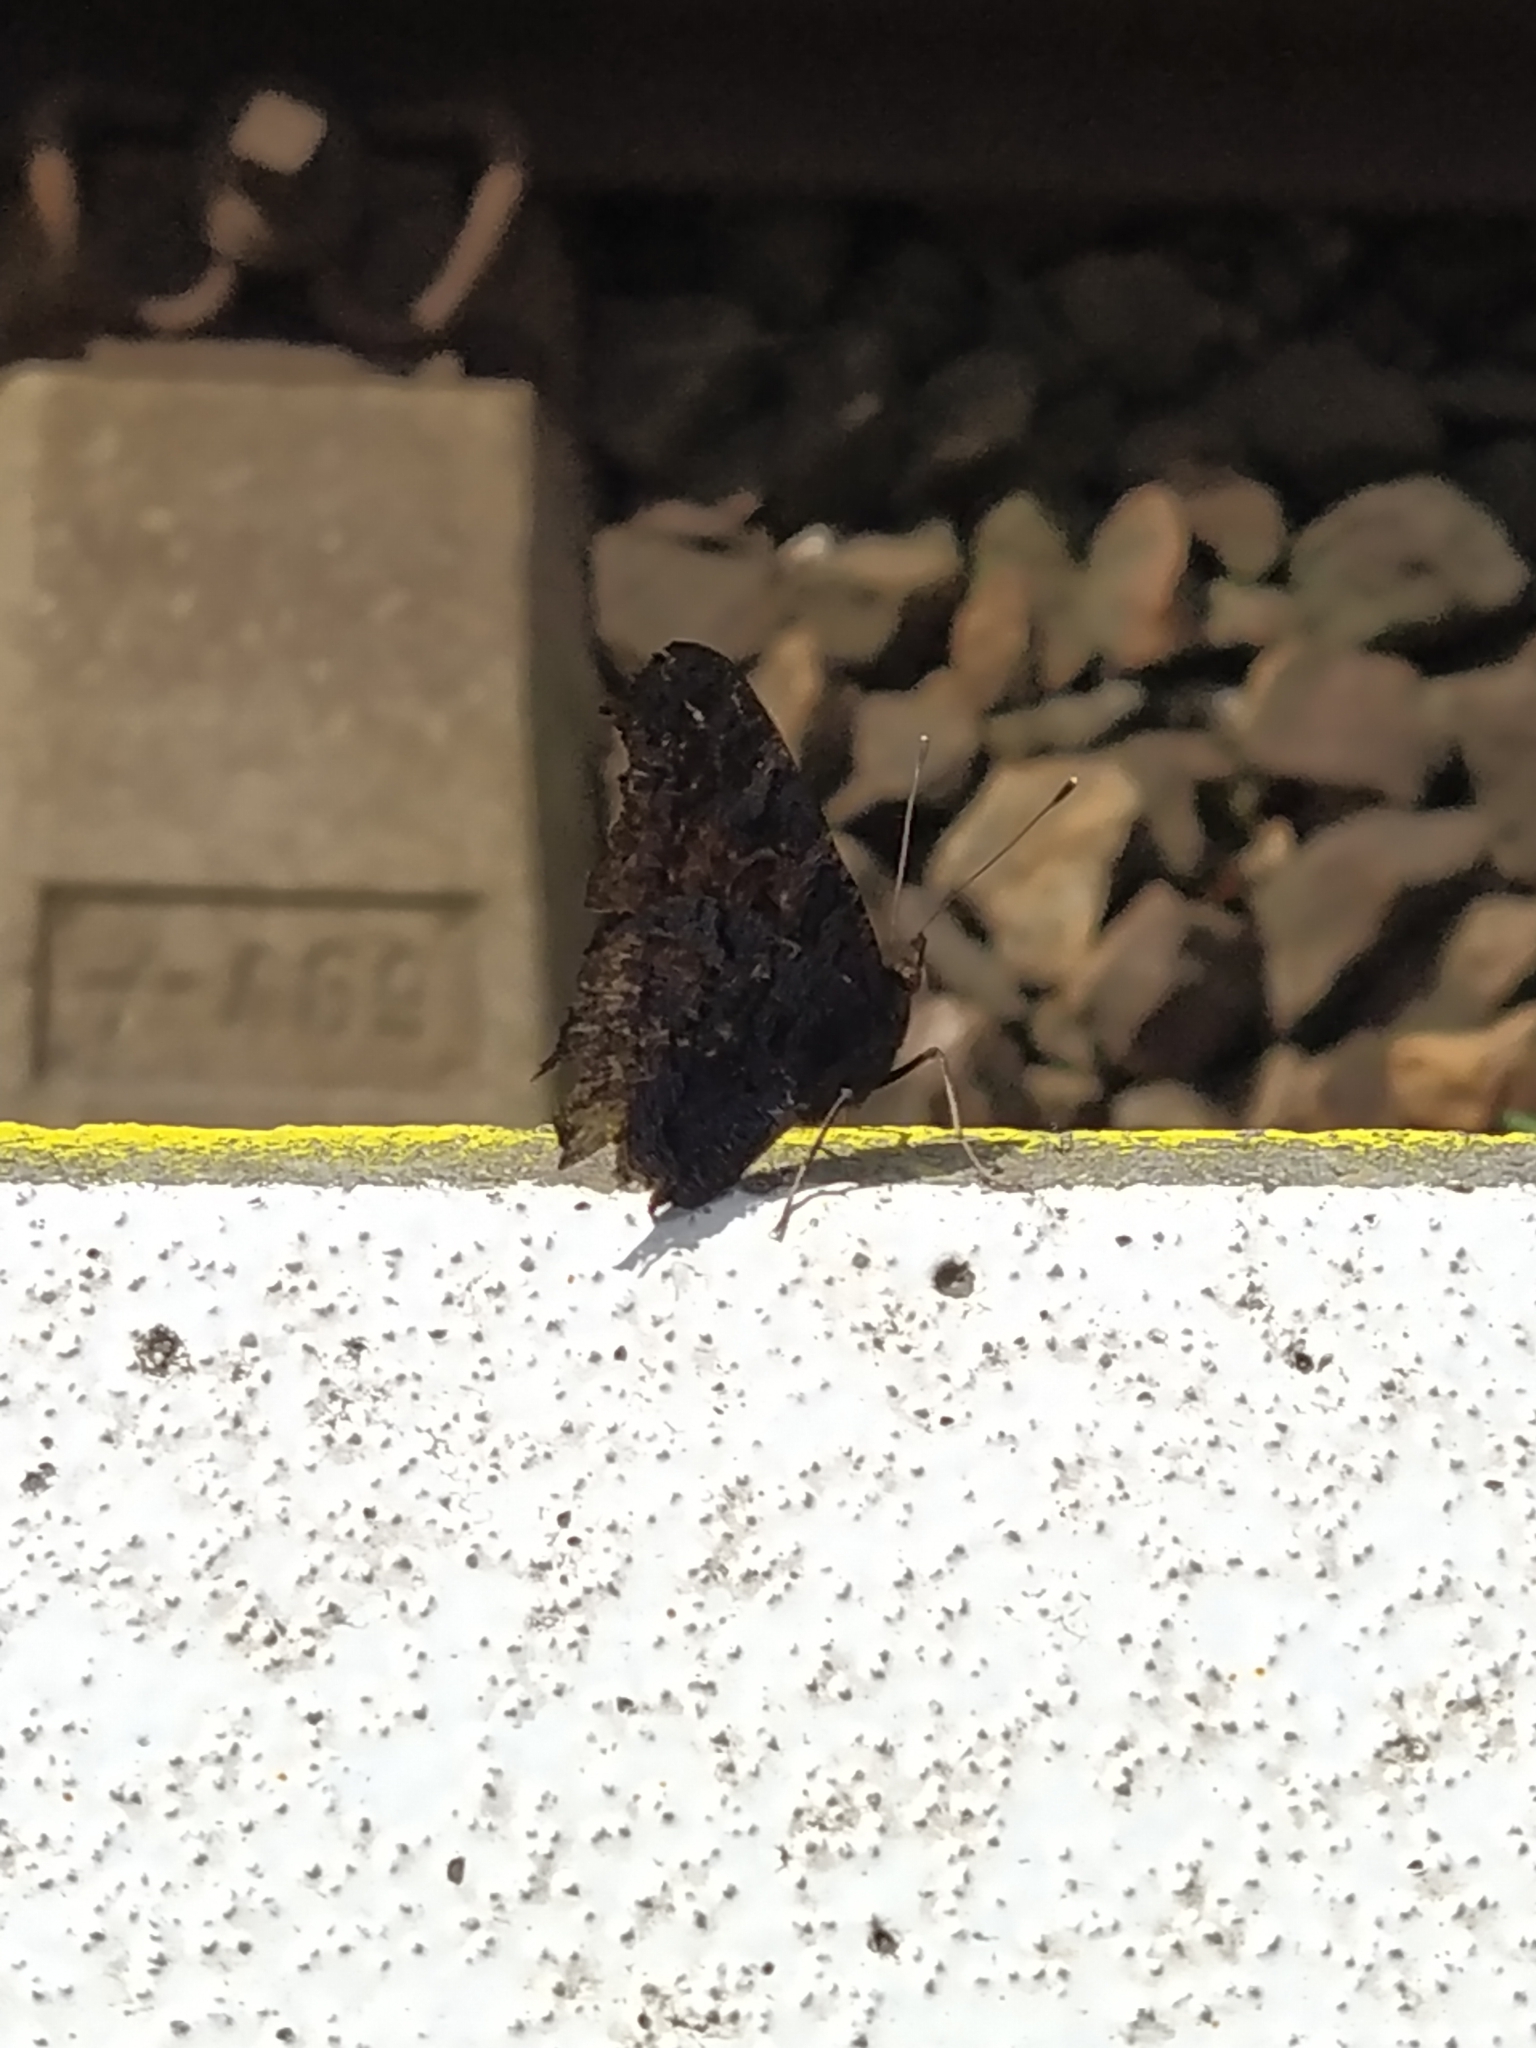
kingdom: Animalia
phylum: Arthropoda
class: Insecta
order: Lepidoptera
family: Nymphalidae
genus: Aglais
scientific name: Aglais io
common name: Peacock
